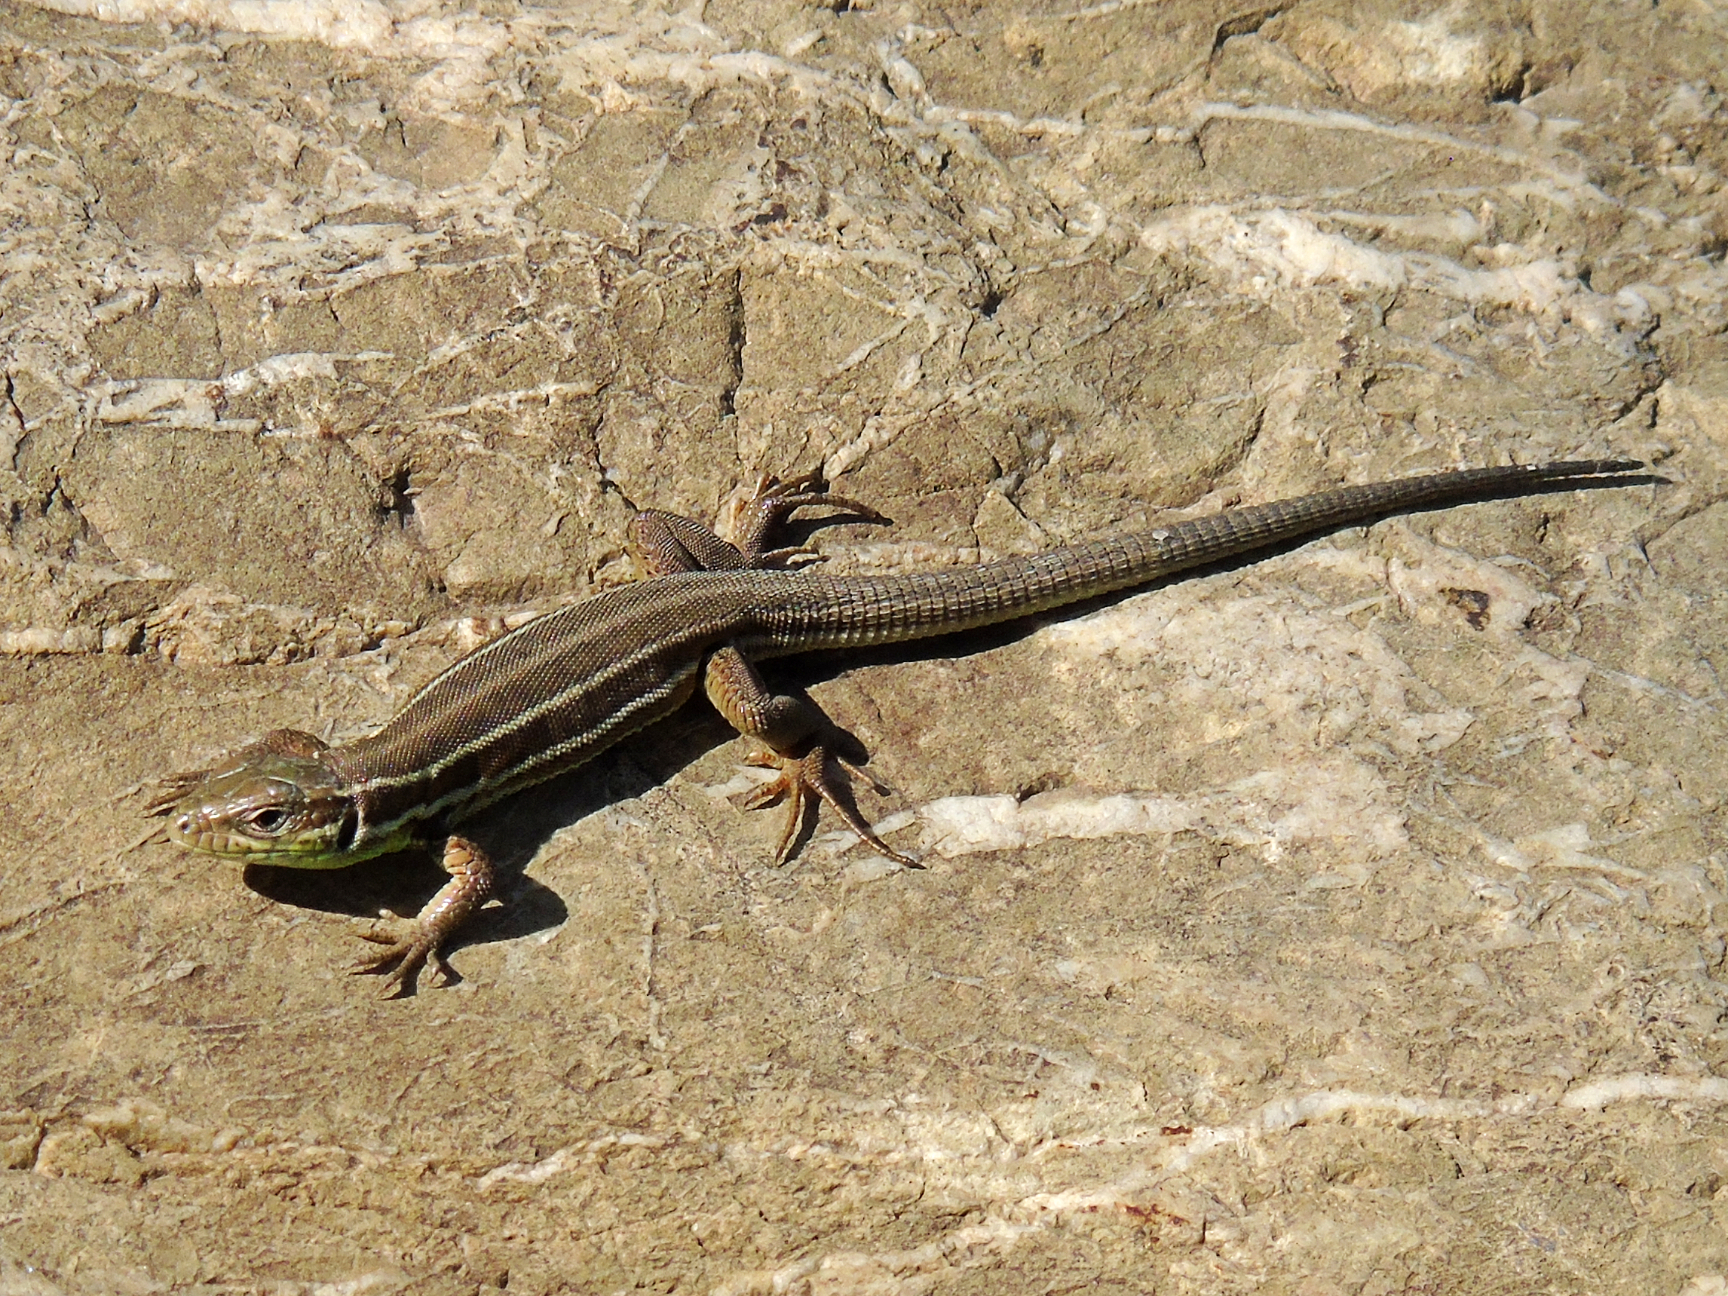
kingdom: Animalia
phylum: Chordata
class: Squamata
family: Lacertidae
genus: Lacerta
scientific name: Lacerta strigata
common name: Caspian green lizard
